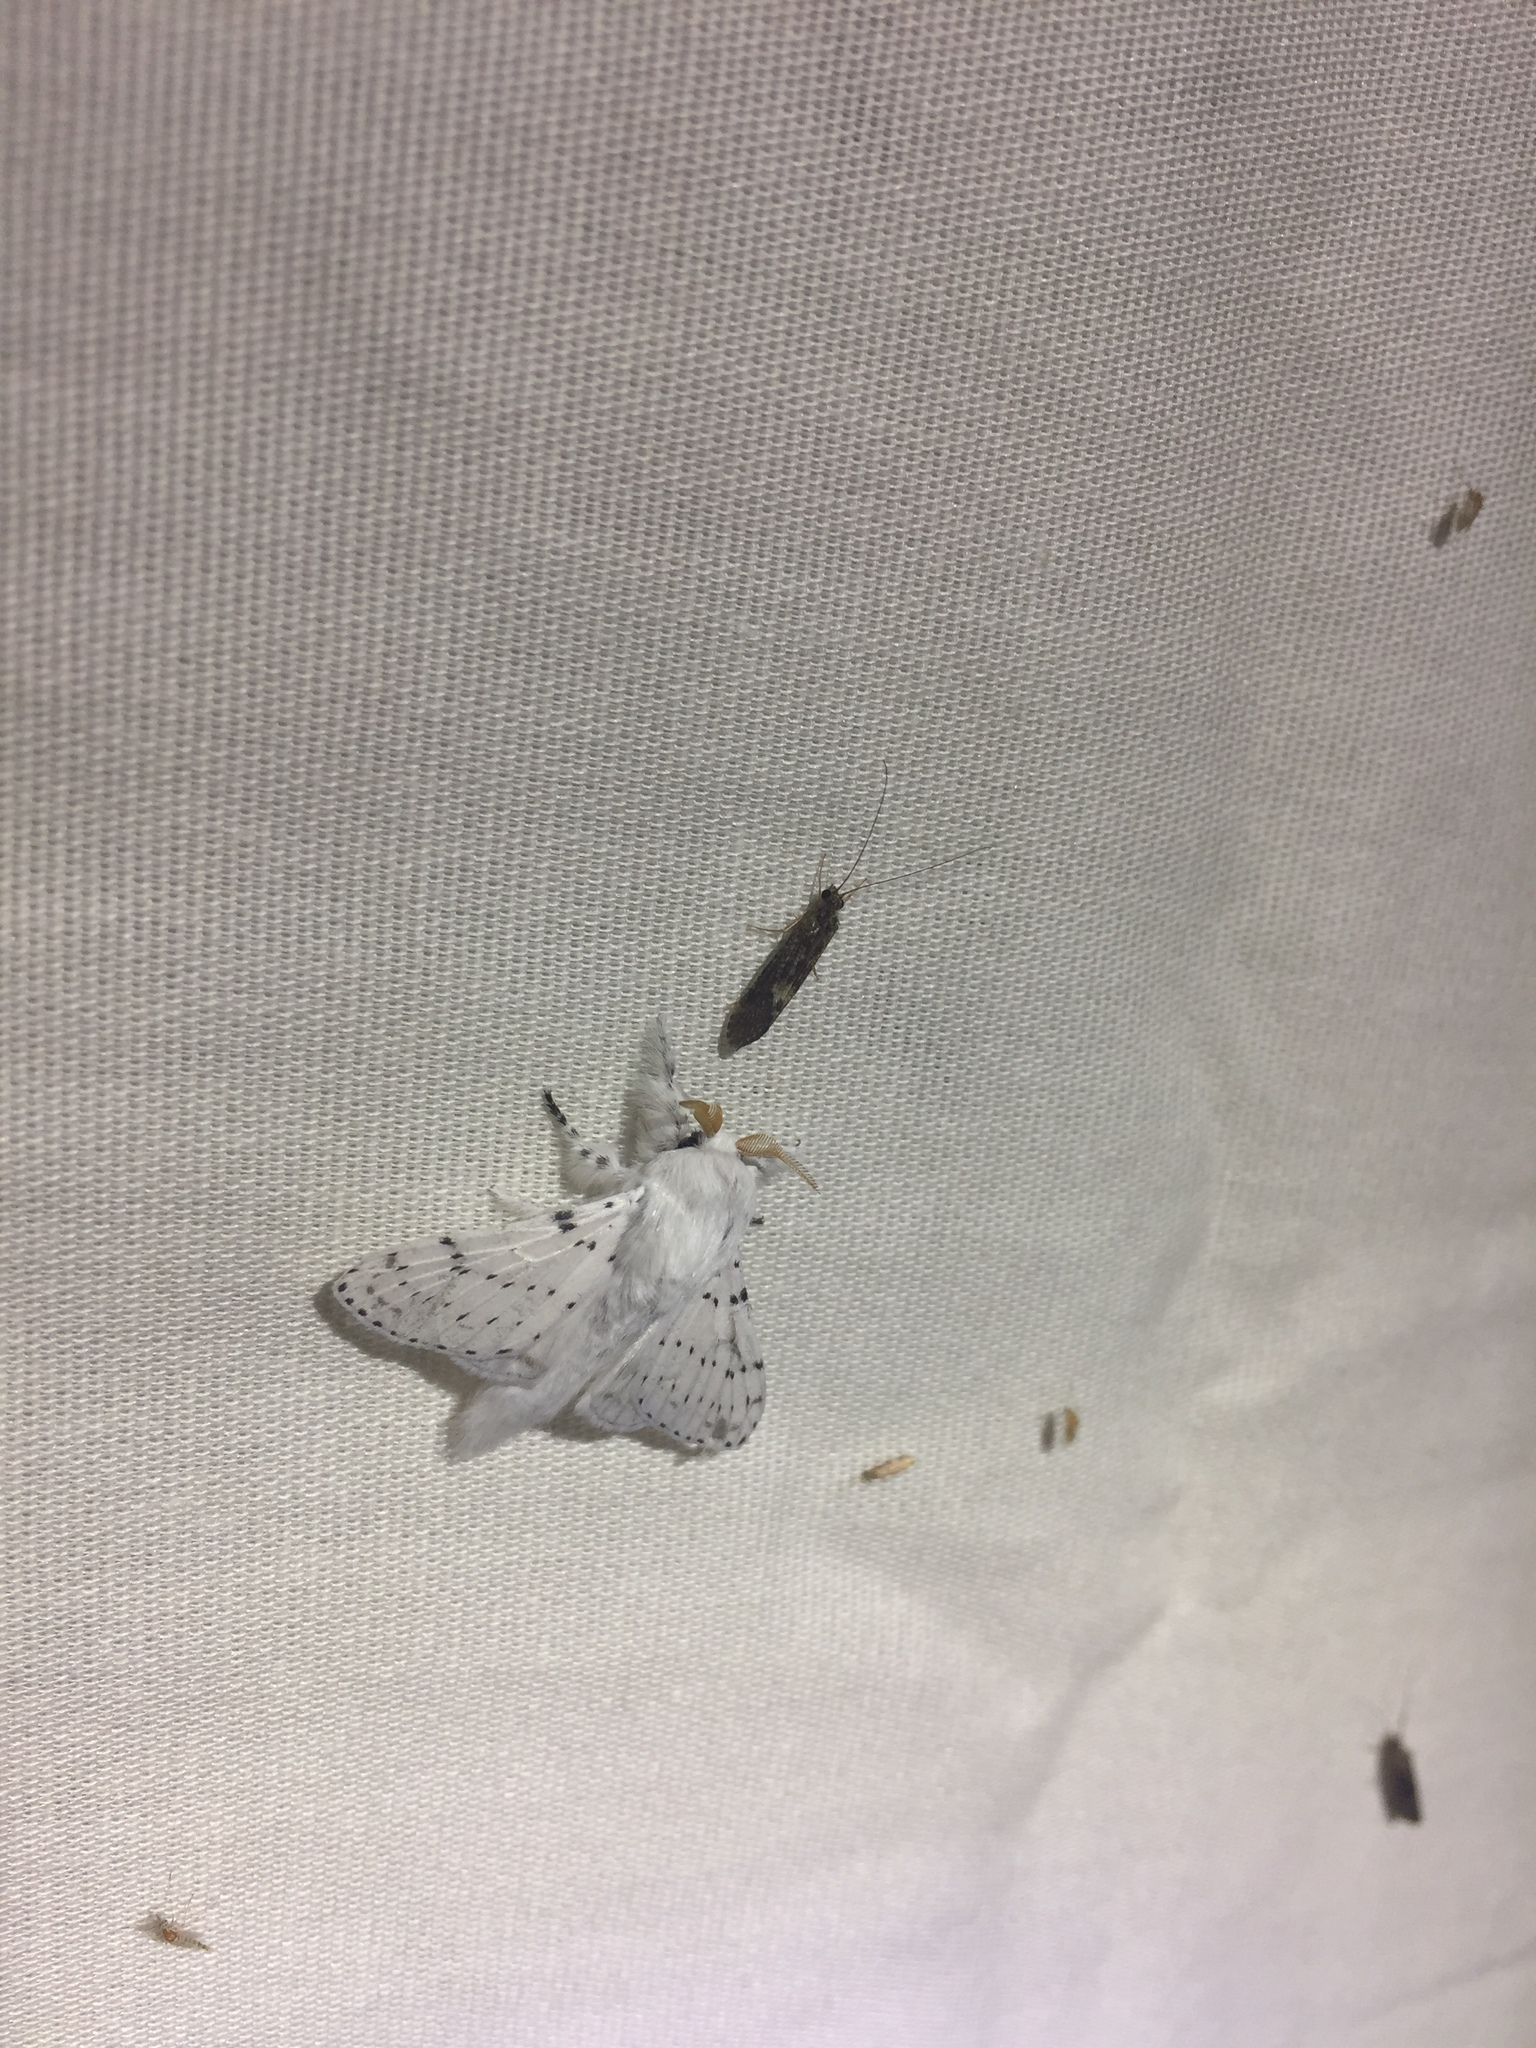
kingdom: Animalia
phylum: Arthropoda
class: Insecta
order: Lepidoptera
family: Lasiocampidae
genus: Artace
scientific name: Artace cribrarius
